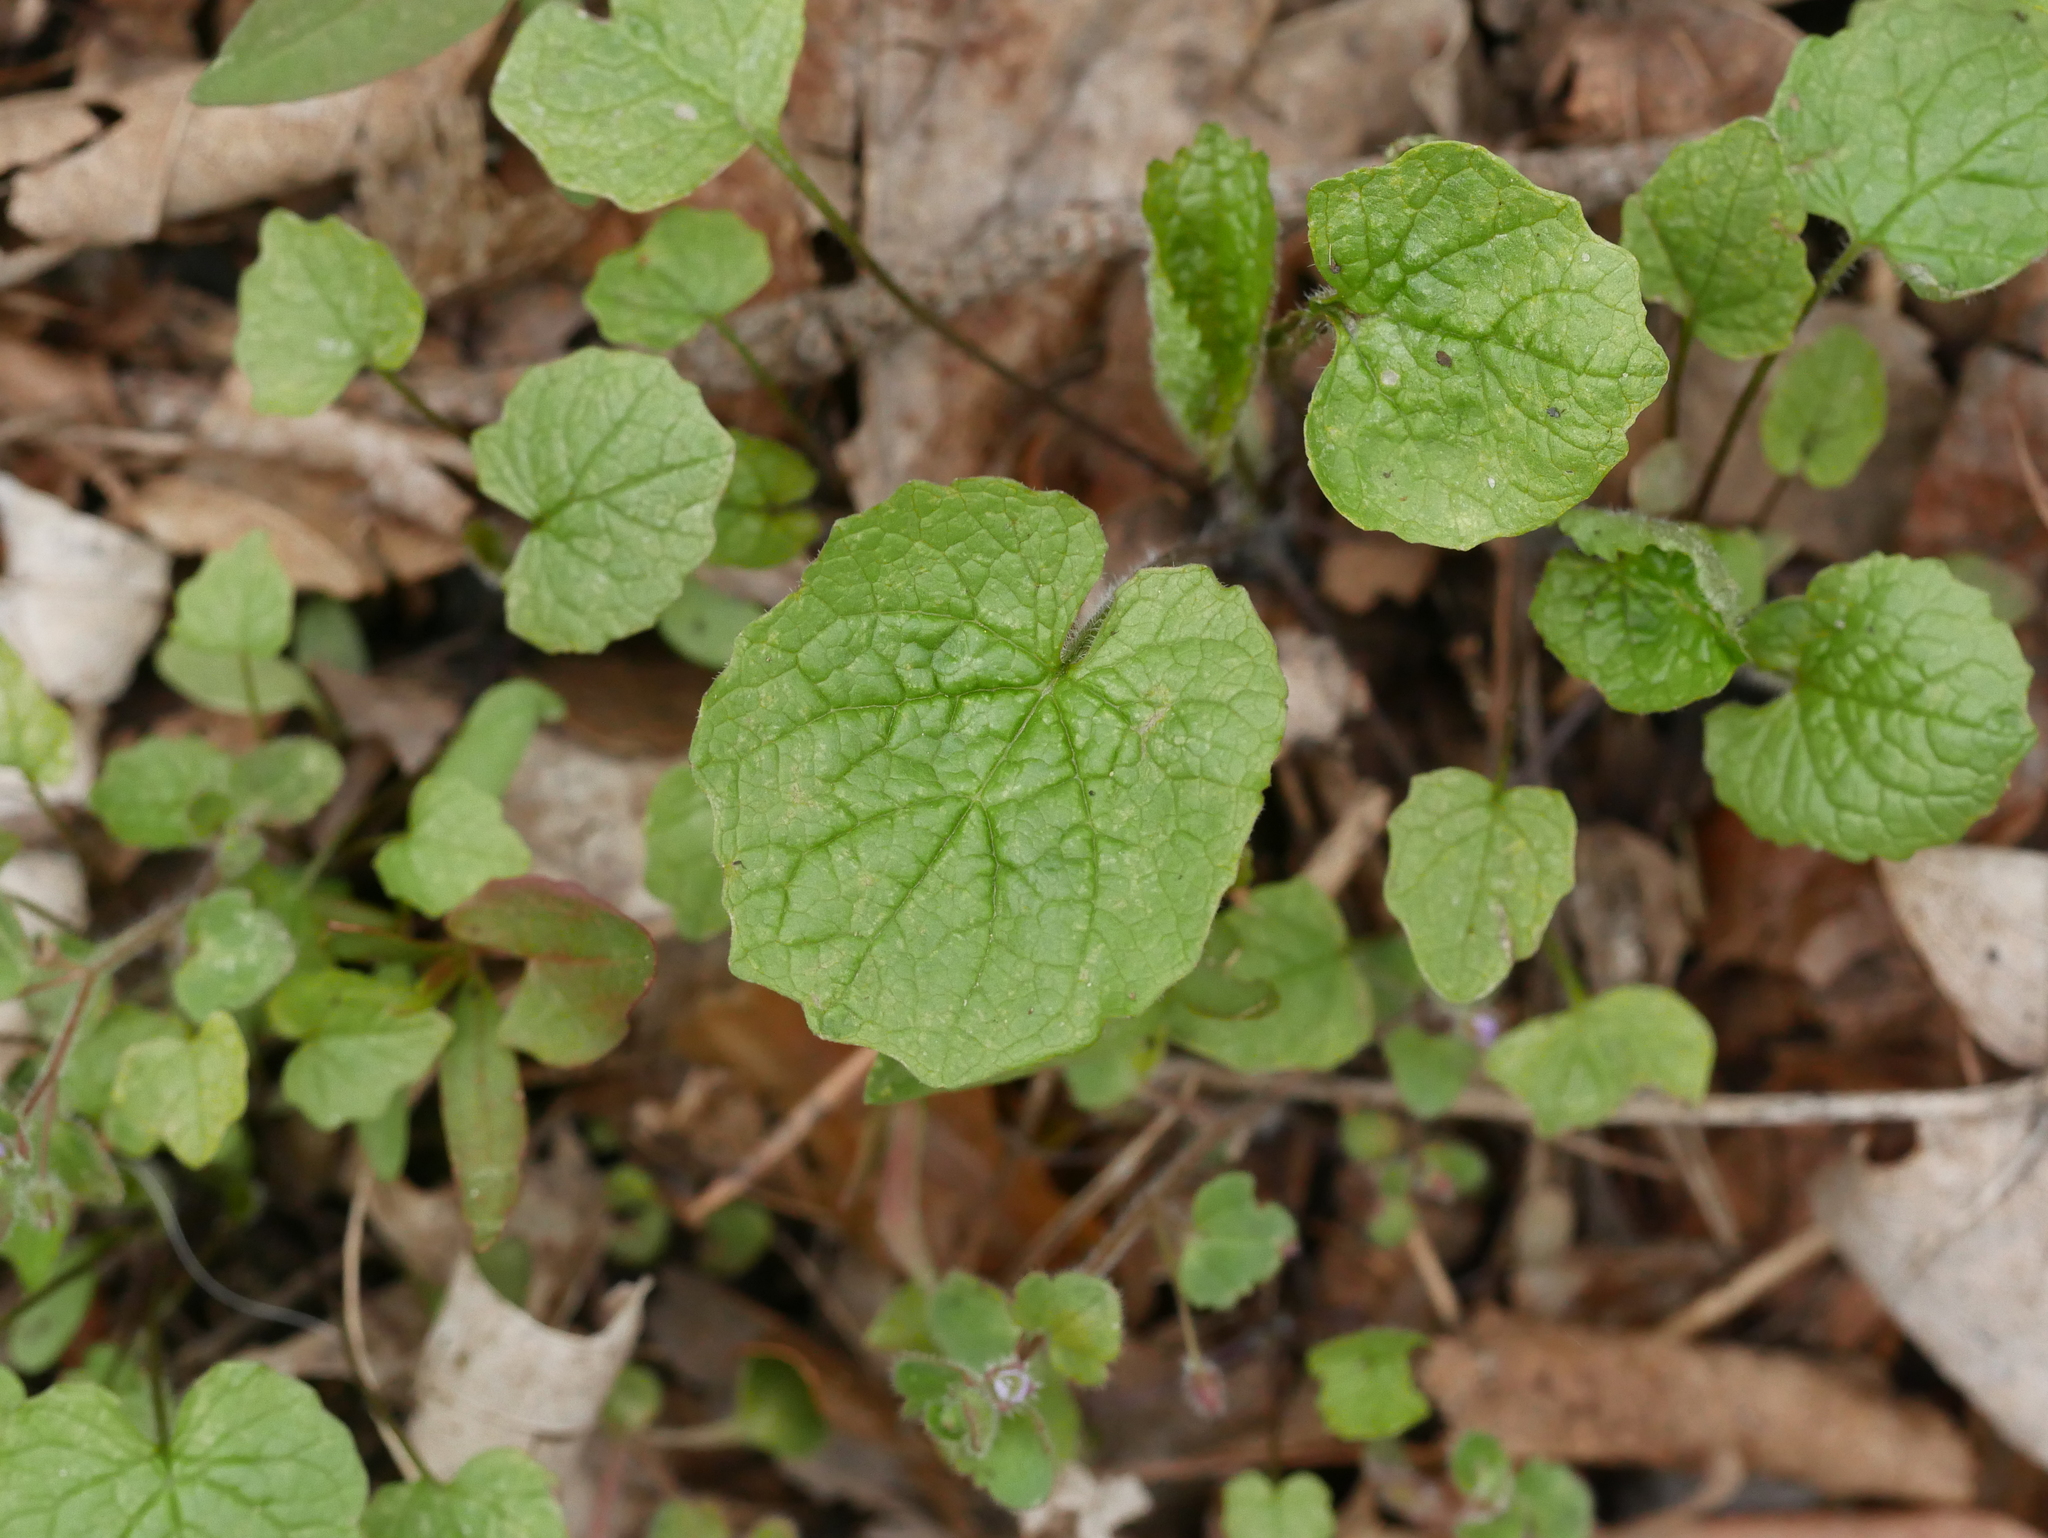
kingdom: Plantae
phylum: Tracheophyta
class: Magnoliopsida
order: Brassicales
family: Brassicaceae
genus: Alliaria
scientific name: Alliaria petiolata
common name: Garlic mustard
